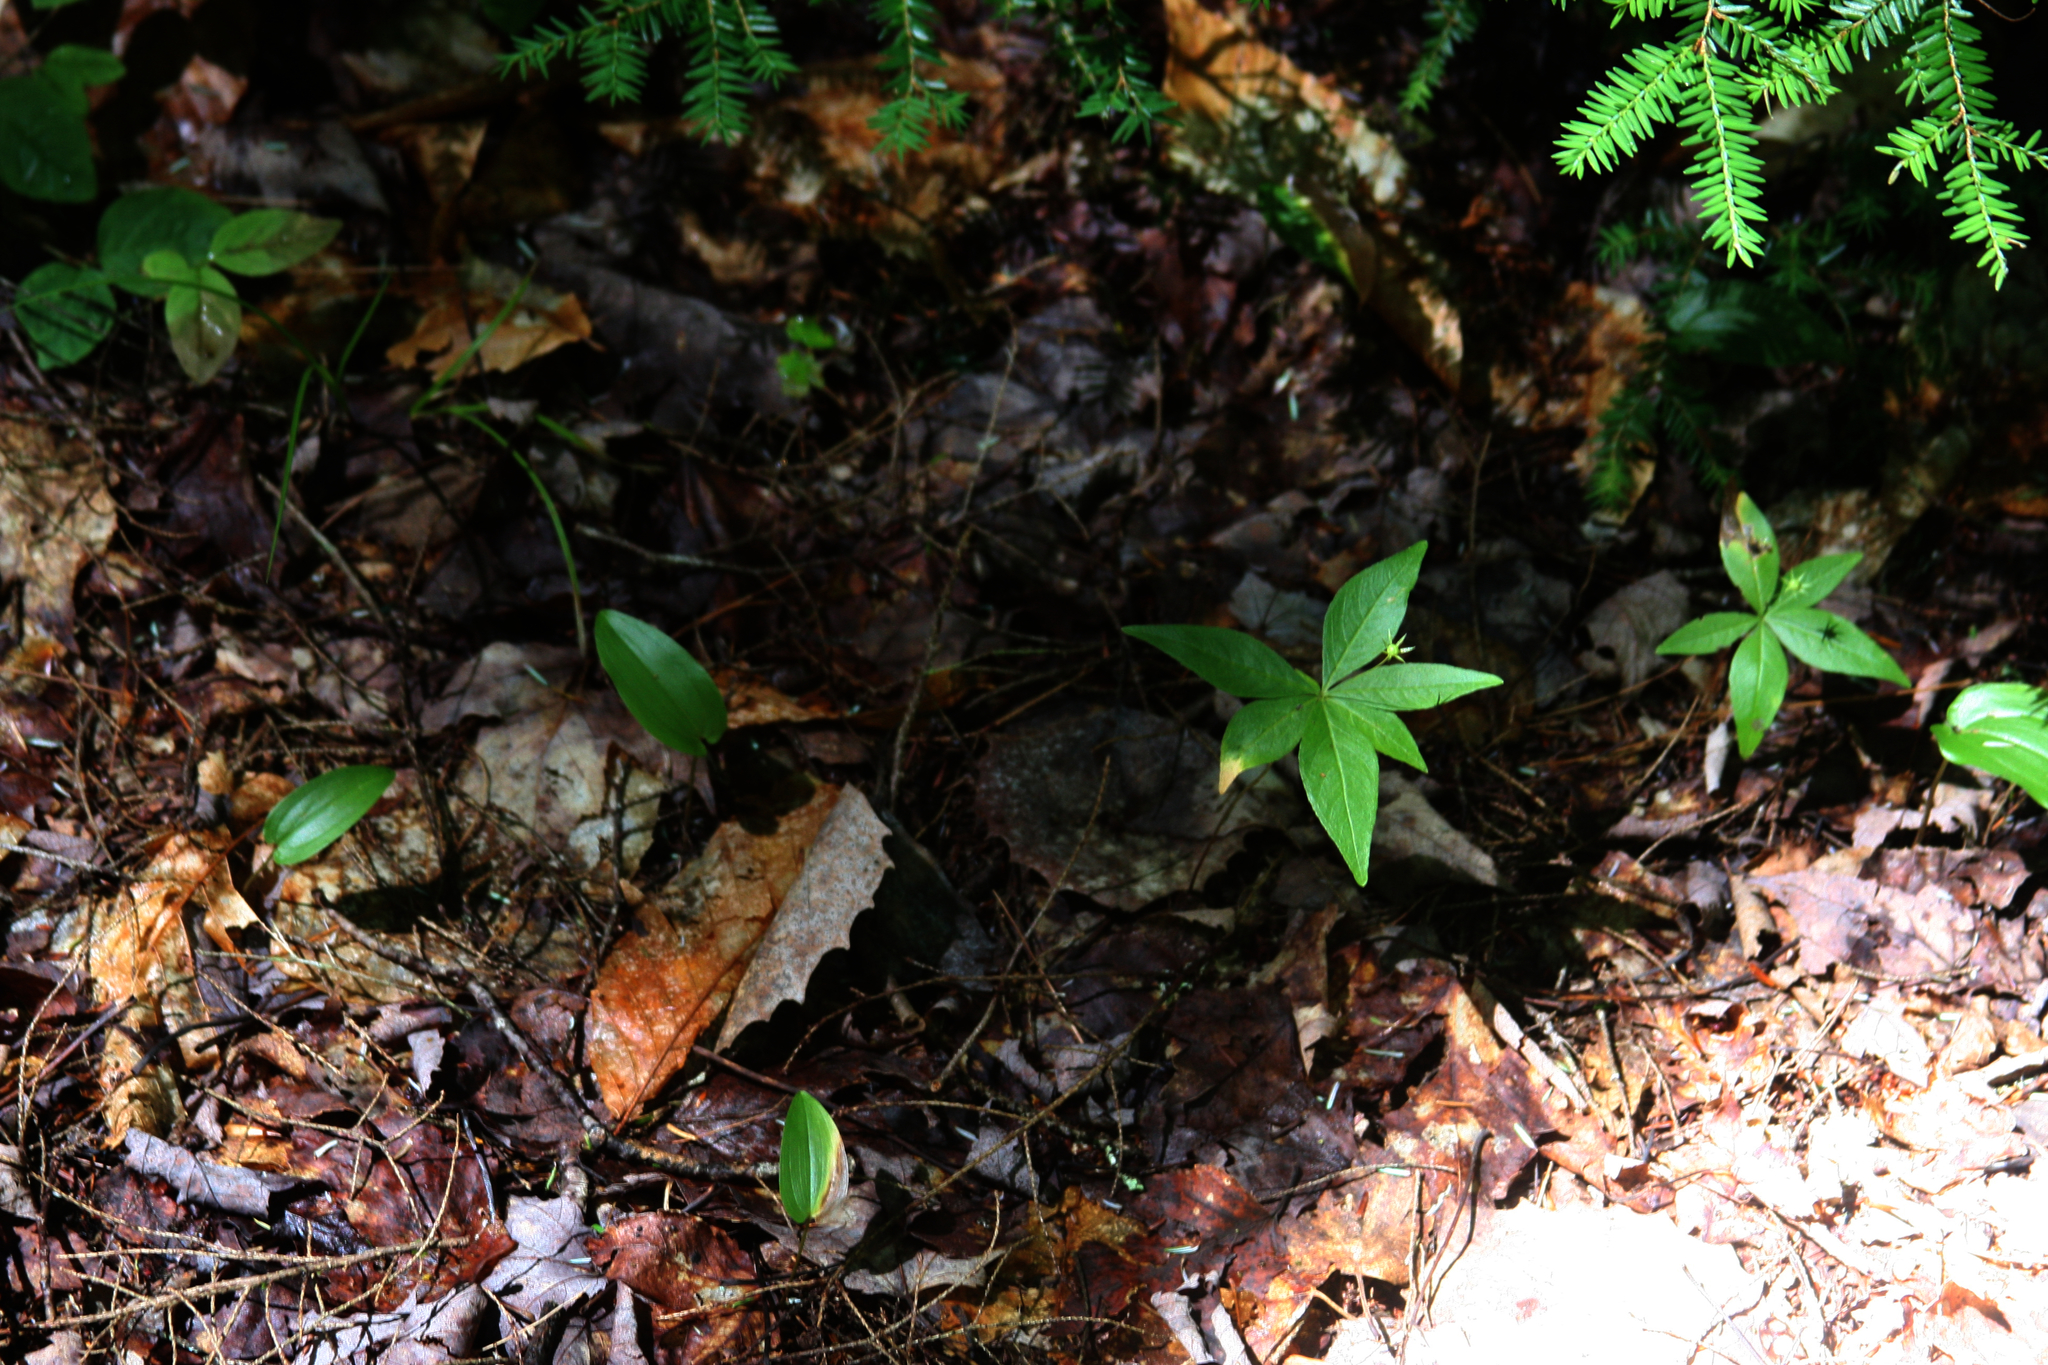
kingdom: Plantae
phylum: Tracheophyta
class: Magnoliopsida
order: Ericales
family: Primulaceae
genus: Lysimachia
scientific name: Lysimachia borealis
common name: American starflower
